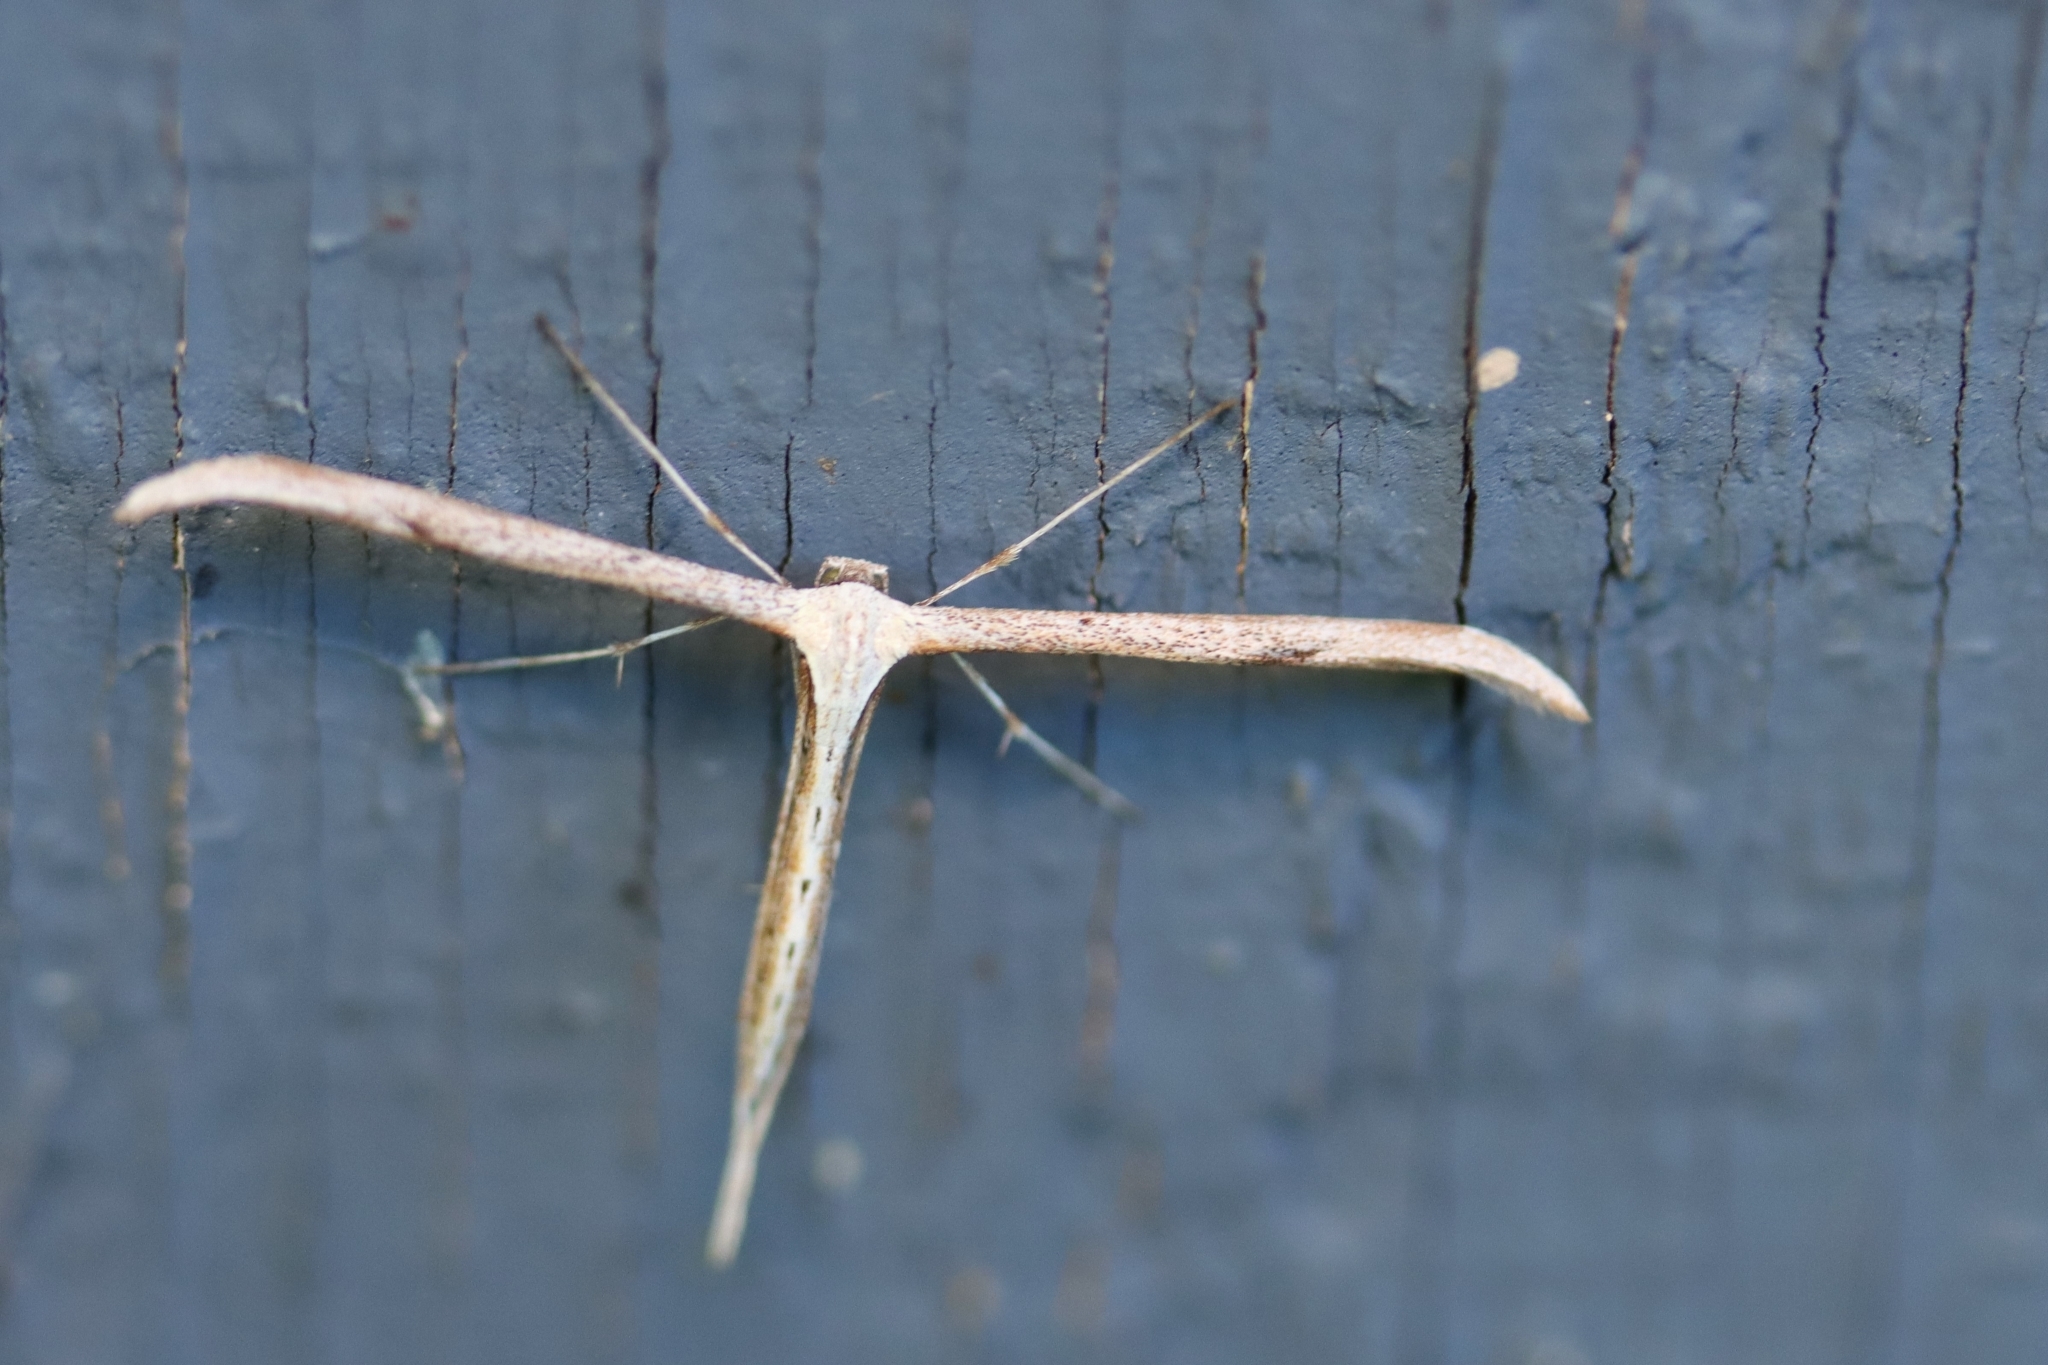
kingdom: Animalia
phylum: Arthropoda
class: Insecta
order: Lepidoptera
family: Pterophoridae
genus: Emmelina
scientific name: Emmelina monodactyla
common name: Common plume
